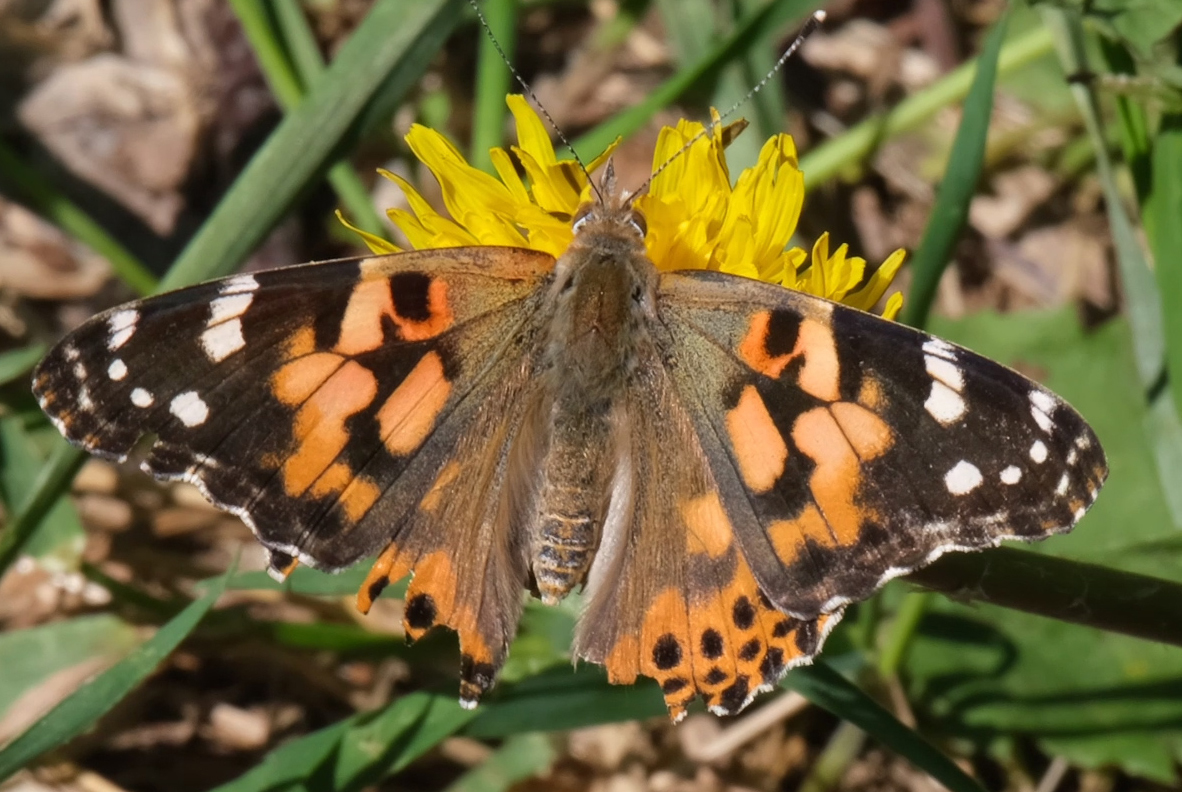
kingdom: Animalia
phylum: Arthropoda
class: Insecta
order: Lepidoptera
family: Nymphalidae
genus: Vanessa
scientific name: Vanessa cardui
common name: Painted lady
